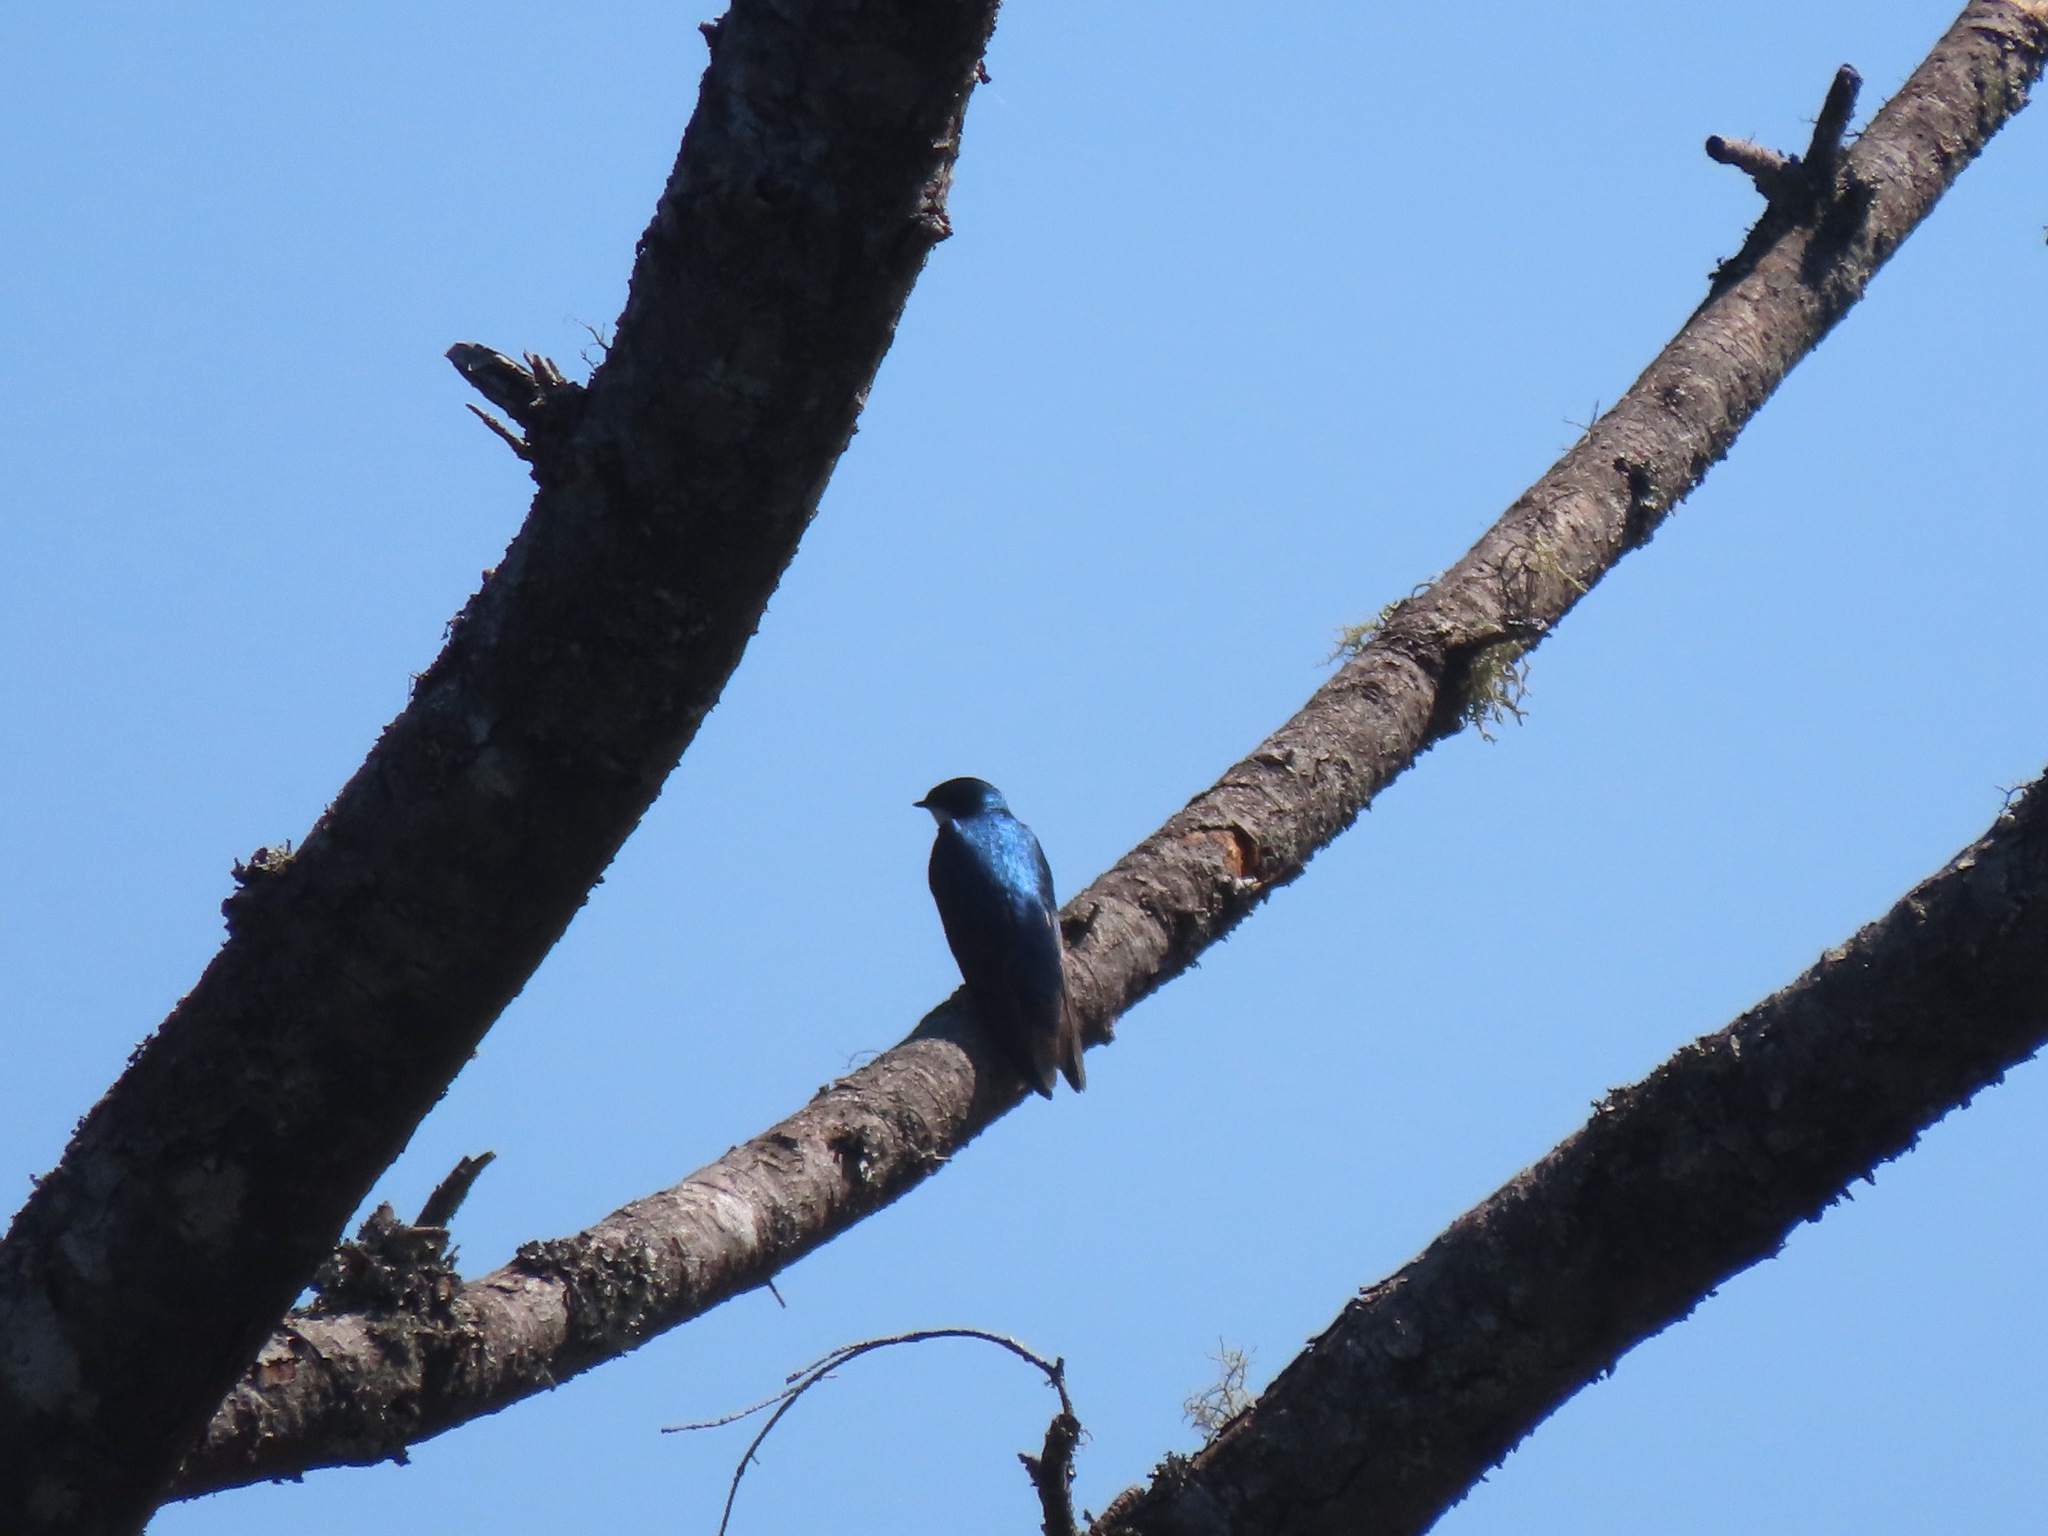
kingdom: Animalia
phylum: Chordata
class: Aves
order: Passeriformes
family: Hirundinidae
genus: Tachycineta
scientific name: Tachycineta bicolor
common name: Tree swallow
